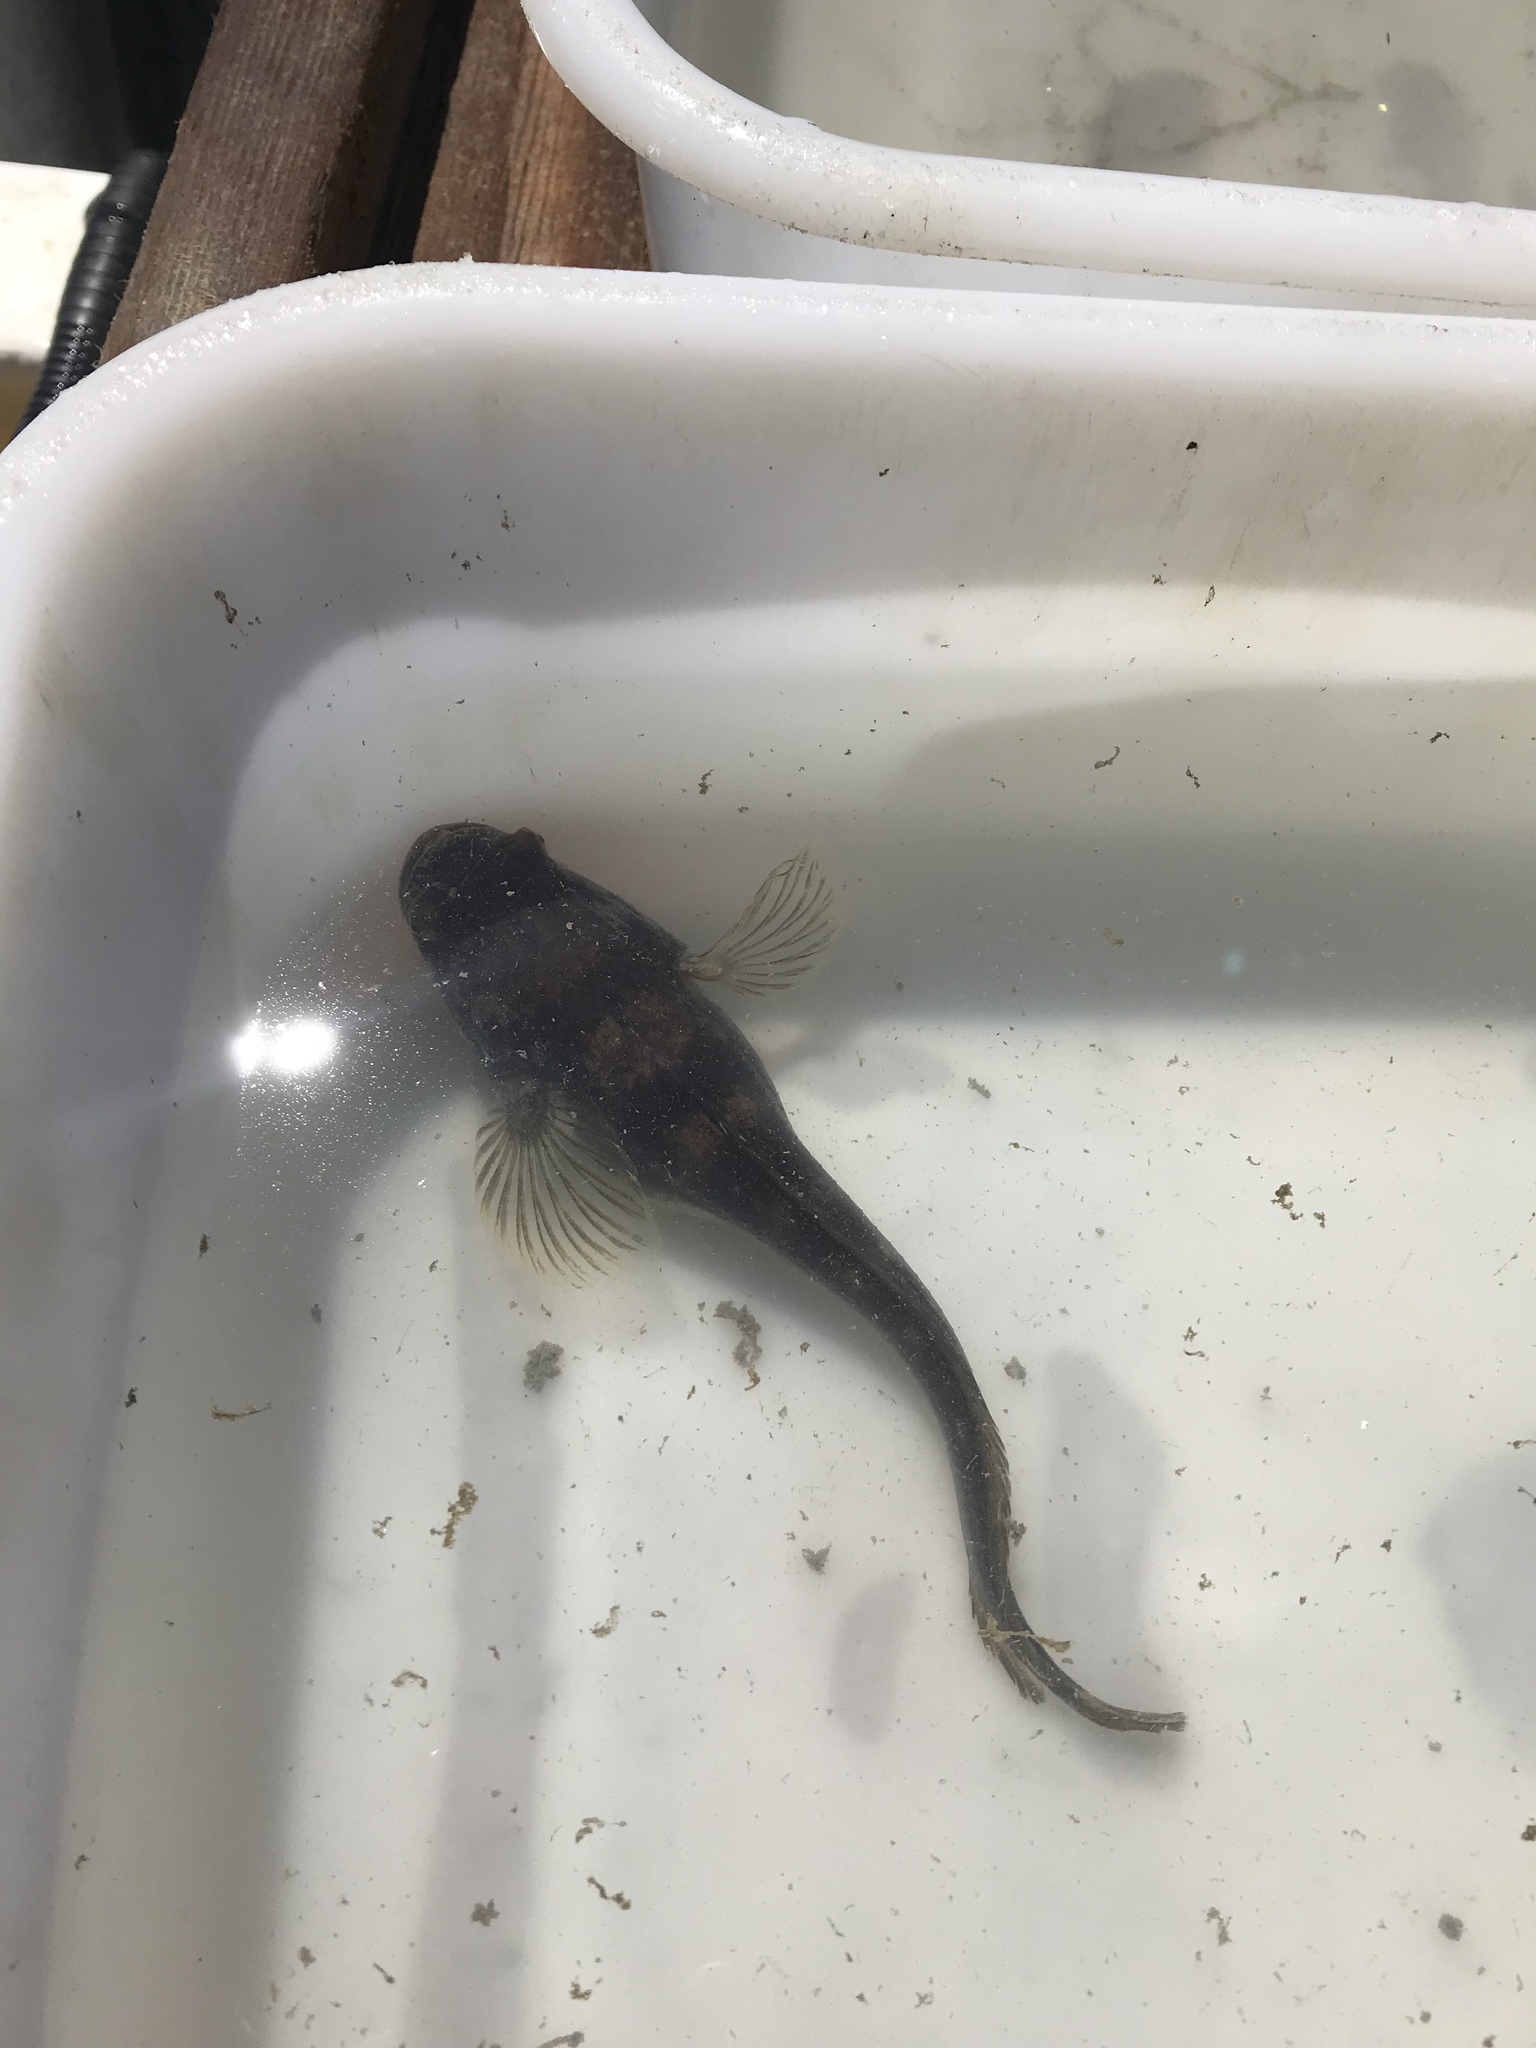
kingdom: Animalia
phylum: Chordata
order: Batrachoidiformes
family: Batrachoididae
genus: Porichthys
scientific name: Porichthys notatus
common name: Plainfin midshipman
